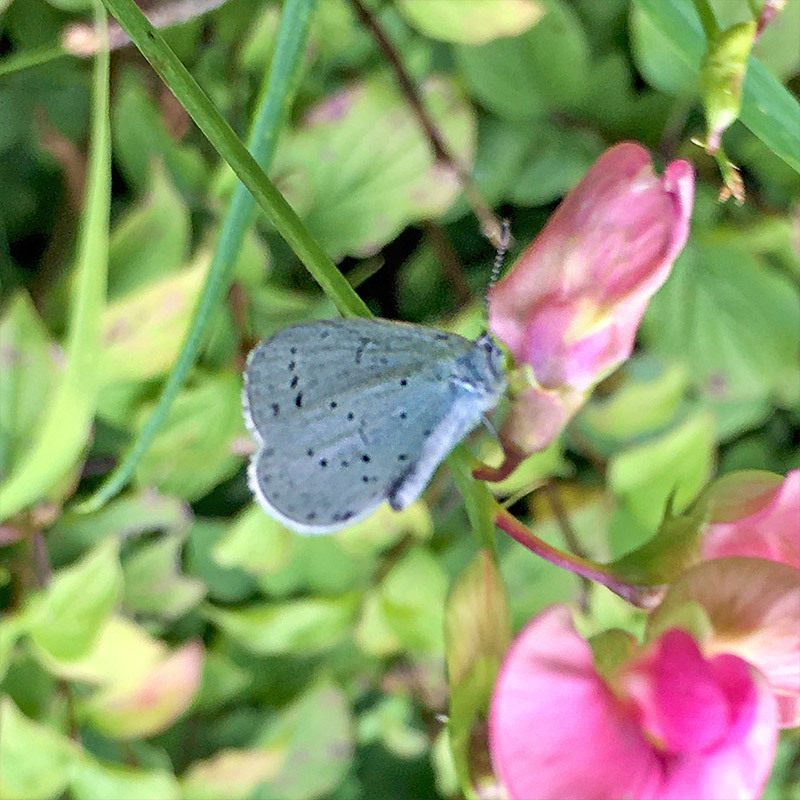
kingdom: Animalia
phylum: Arthropoda
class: Insecta
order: Lepidoptera
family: Lycaenidae
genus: Celastrina
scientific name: Celastrina argiolus
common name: Holly blue
